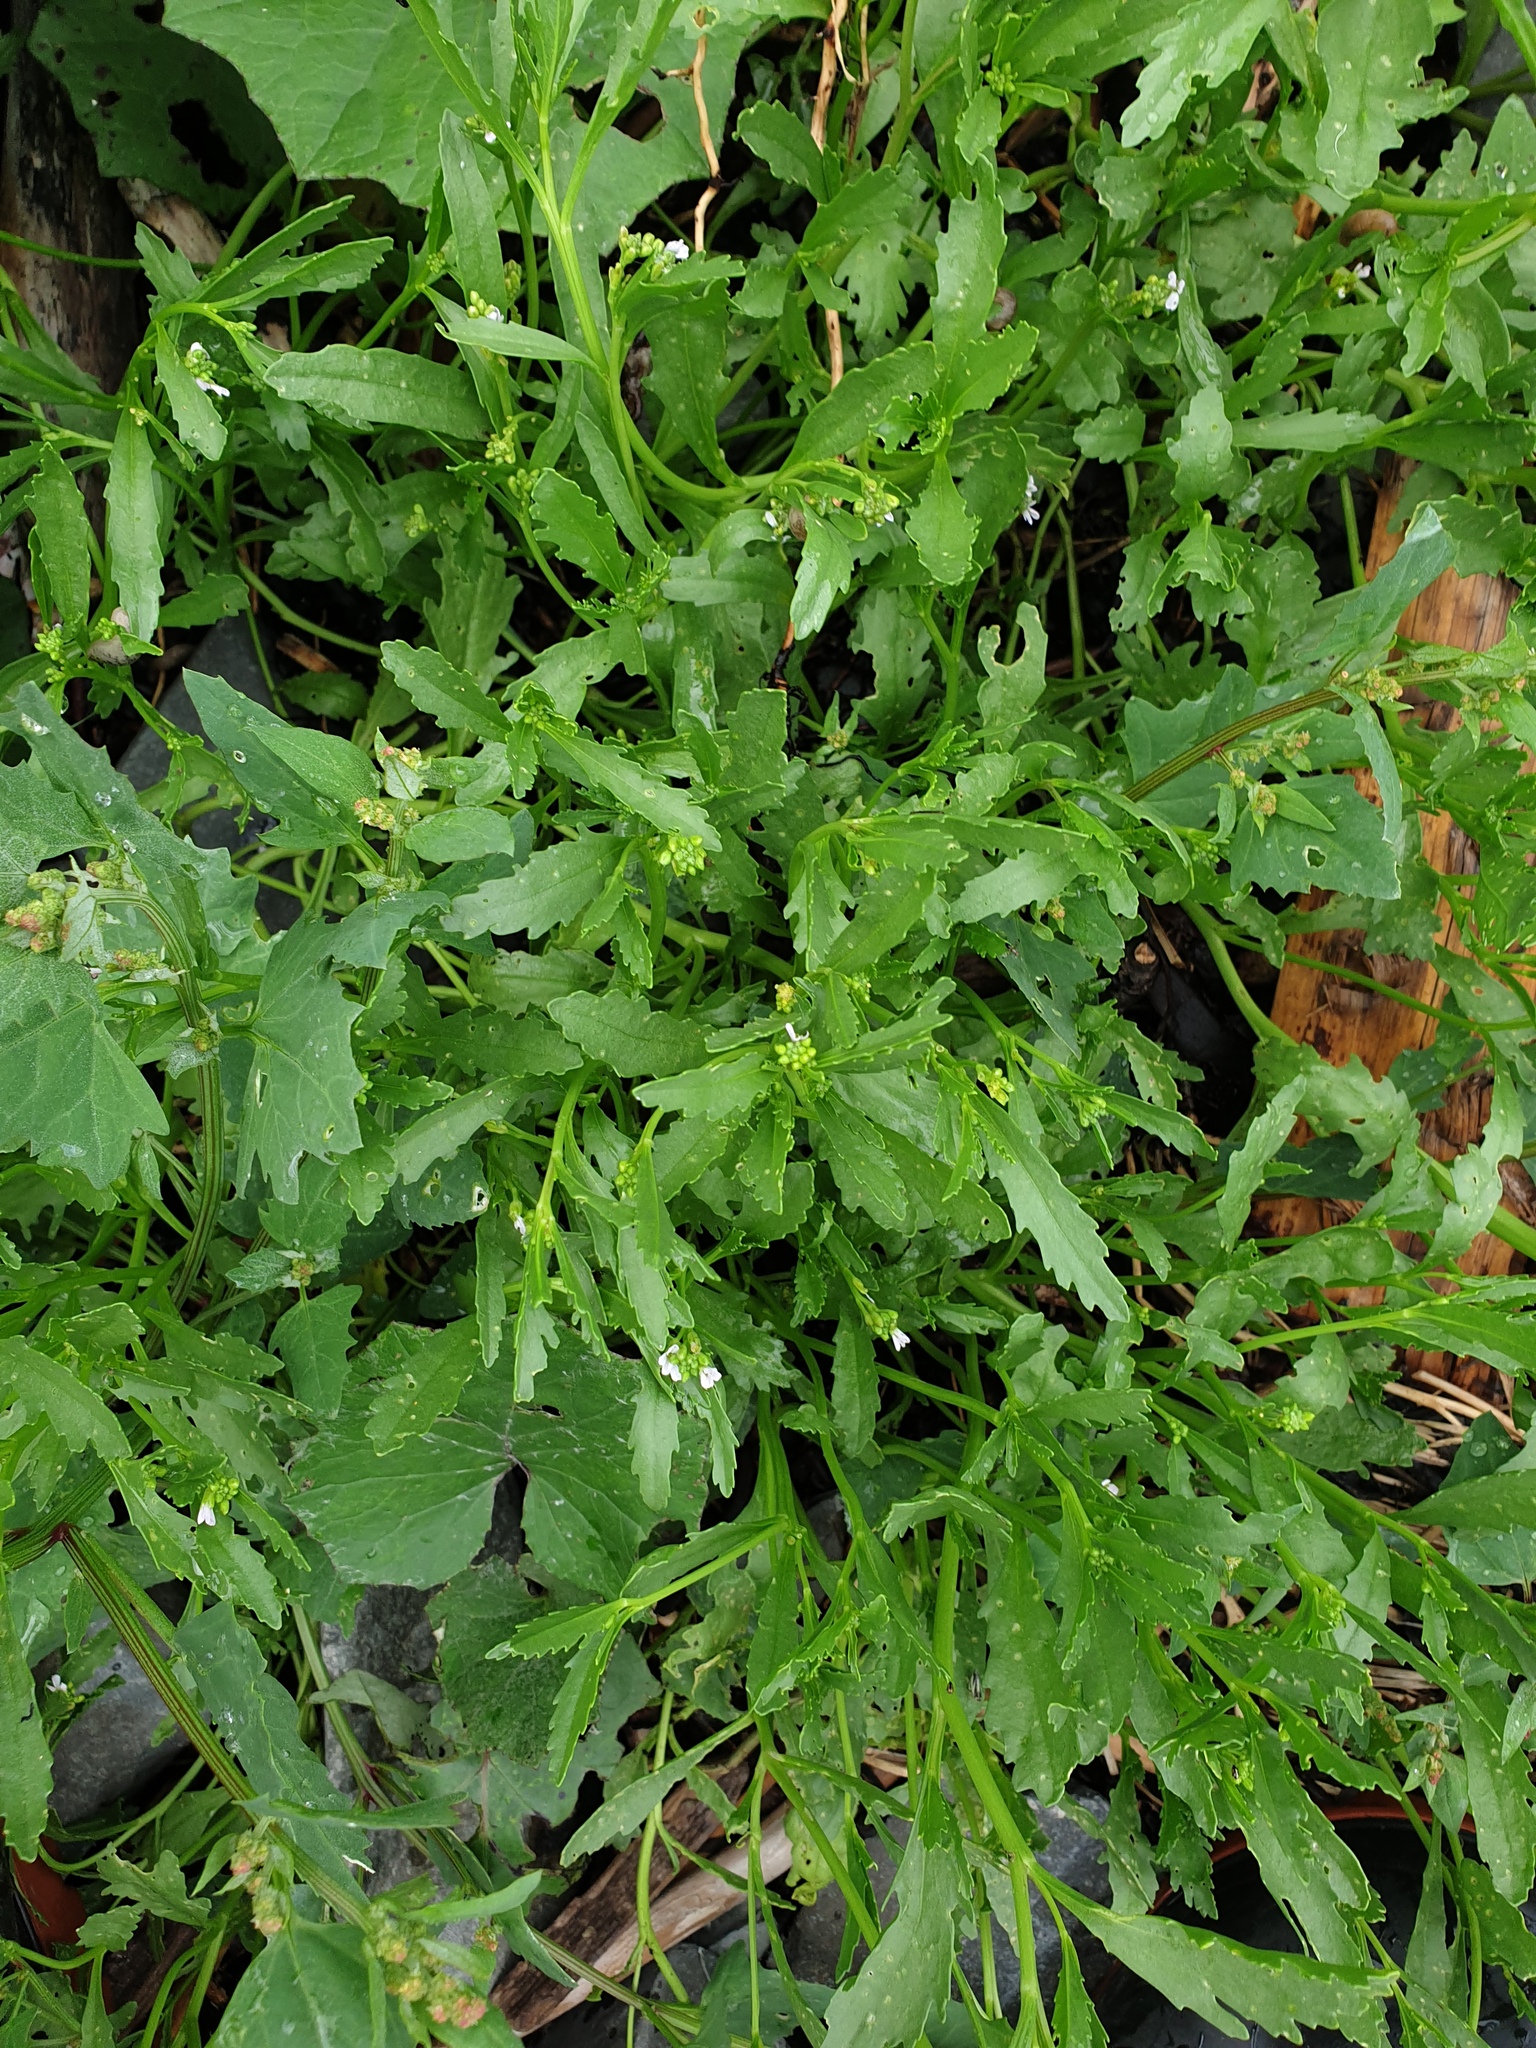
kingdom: Plantae
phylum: Tracheophyta
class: Magnoliopsida
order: Brassicales
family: Brassicaceae
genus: Cakile
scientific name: Cakile edentula
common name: American sea rocket
